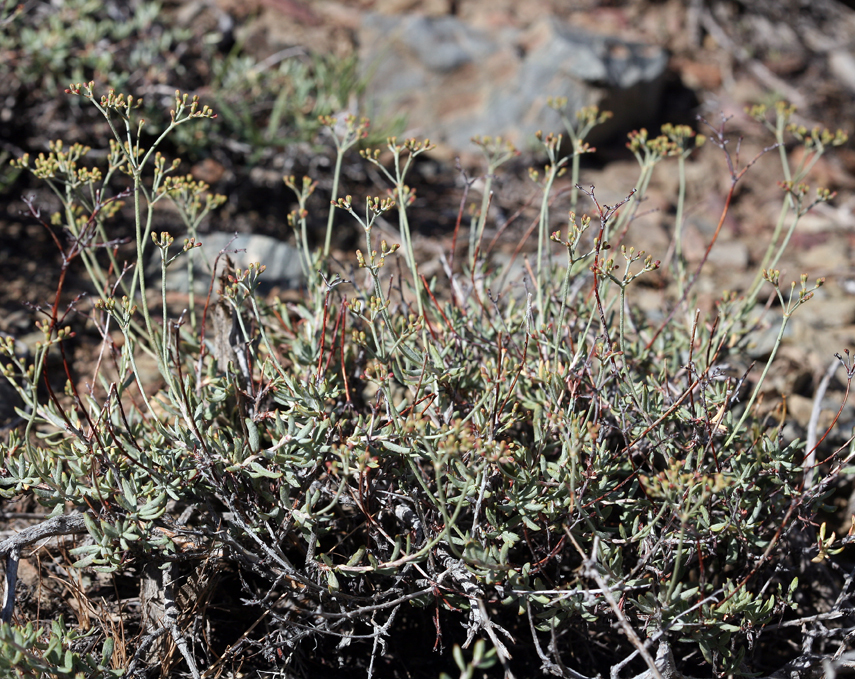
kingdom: Plantae
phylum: Tracheophyta
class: Magnoliopsida
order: Caryophyllales
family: Polygonaceae
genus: Eriogonum
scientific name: Eriogonum microtheca
